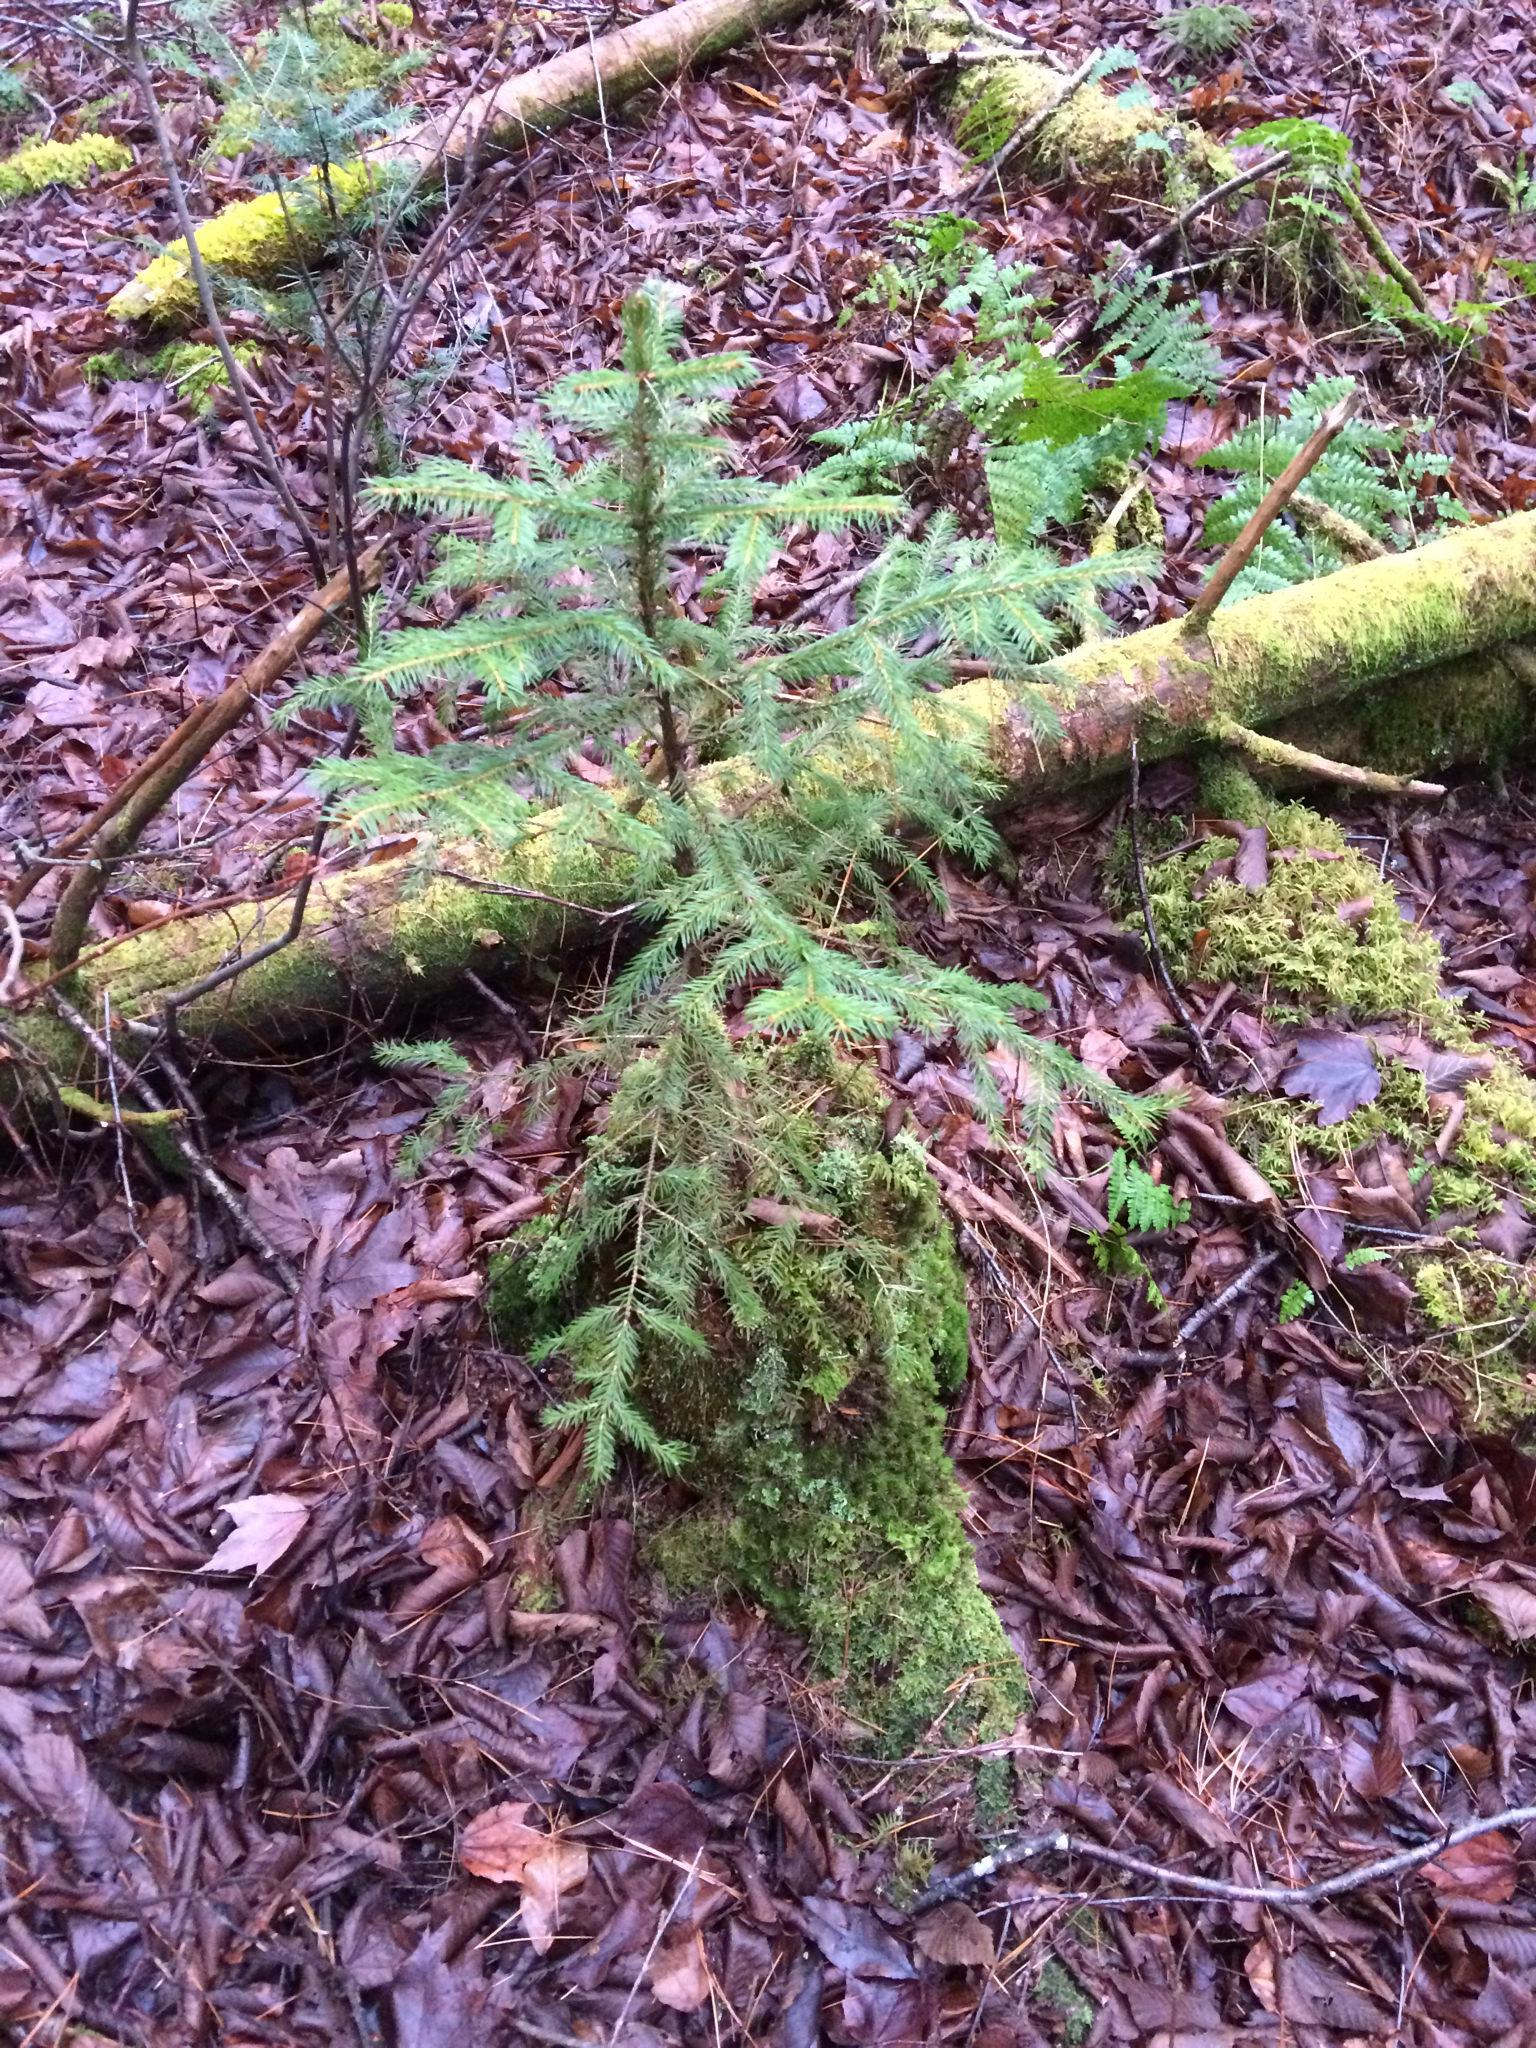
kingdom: Plantae
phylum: Tracheophyta
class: Pinopsida
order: Pinales
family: Pinaceae
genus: Picea
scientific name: Picea rubens
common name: Red spruce
